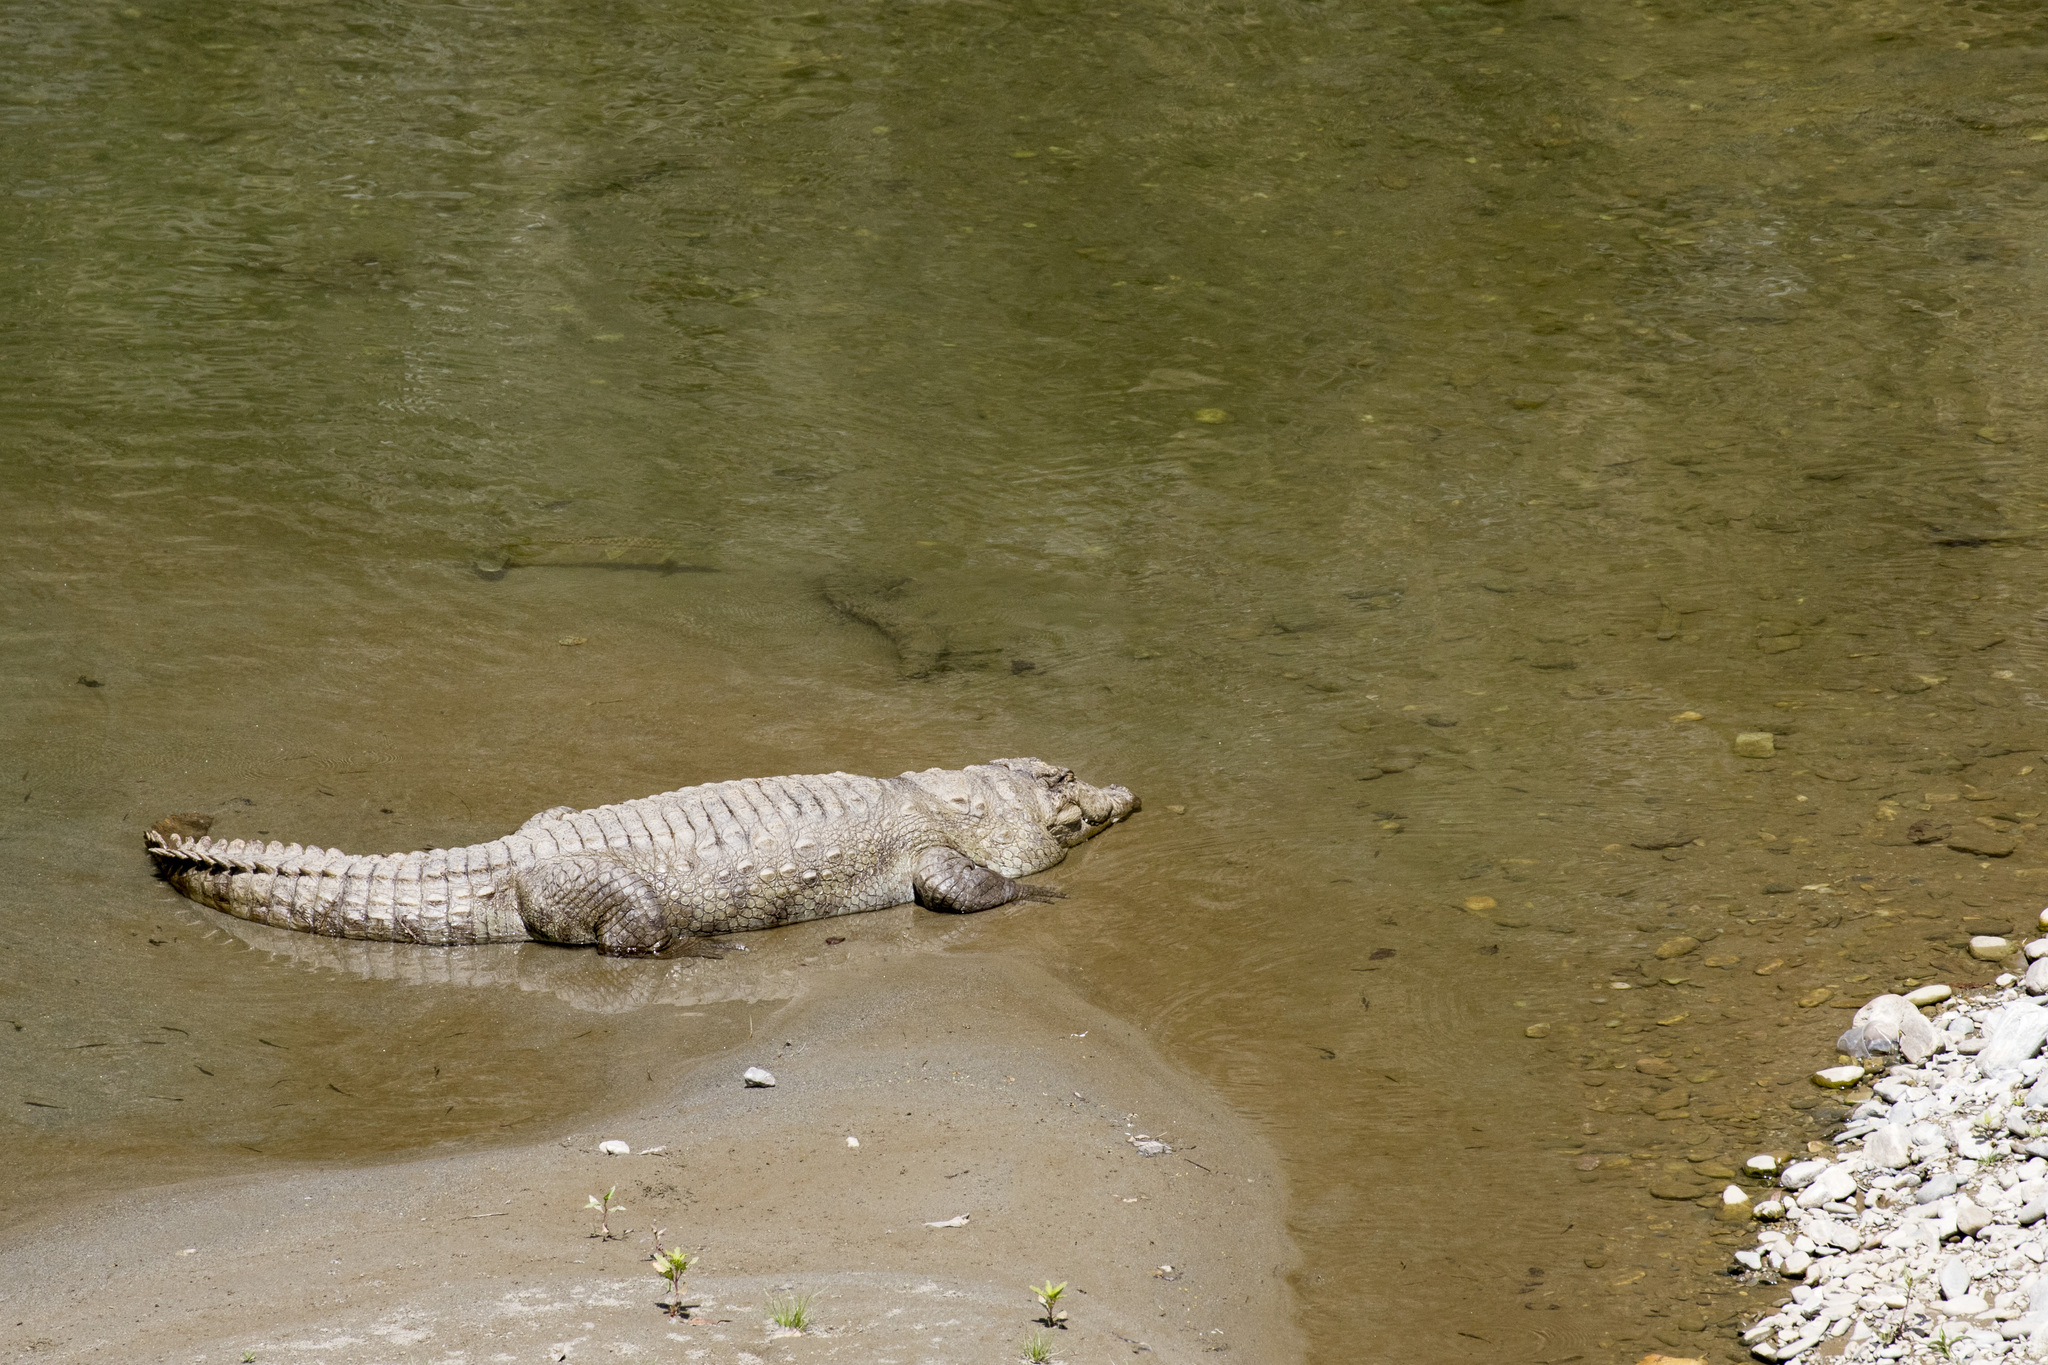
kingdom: Animalia
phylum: Chordata
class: Crocodylia
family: Crocodylidae
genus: Crocodylus
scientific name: Crocodylus palustris
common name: Mugger crocodile
